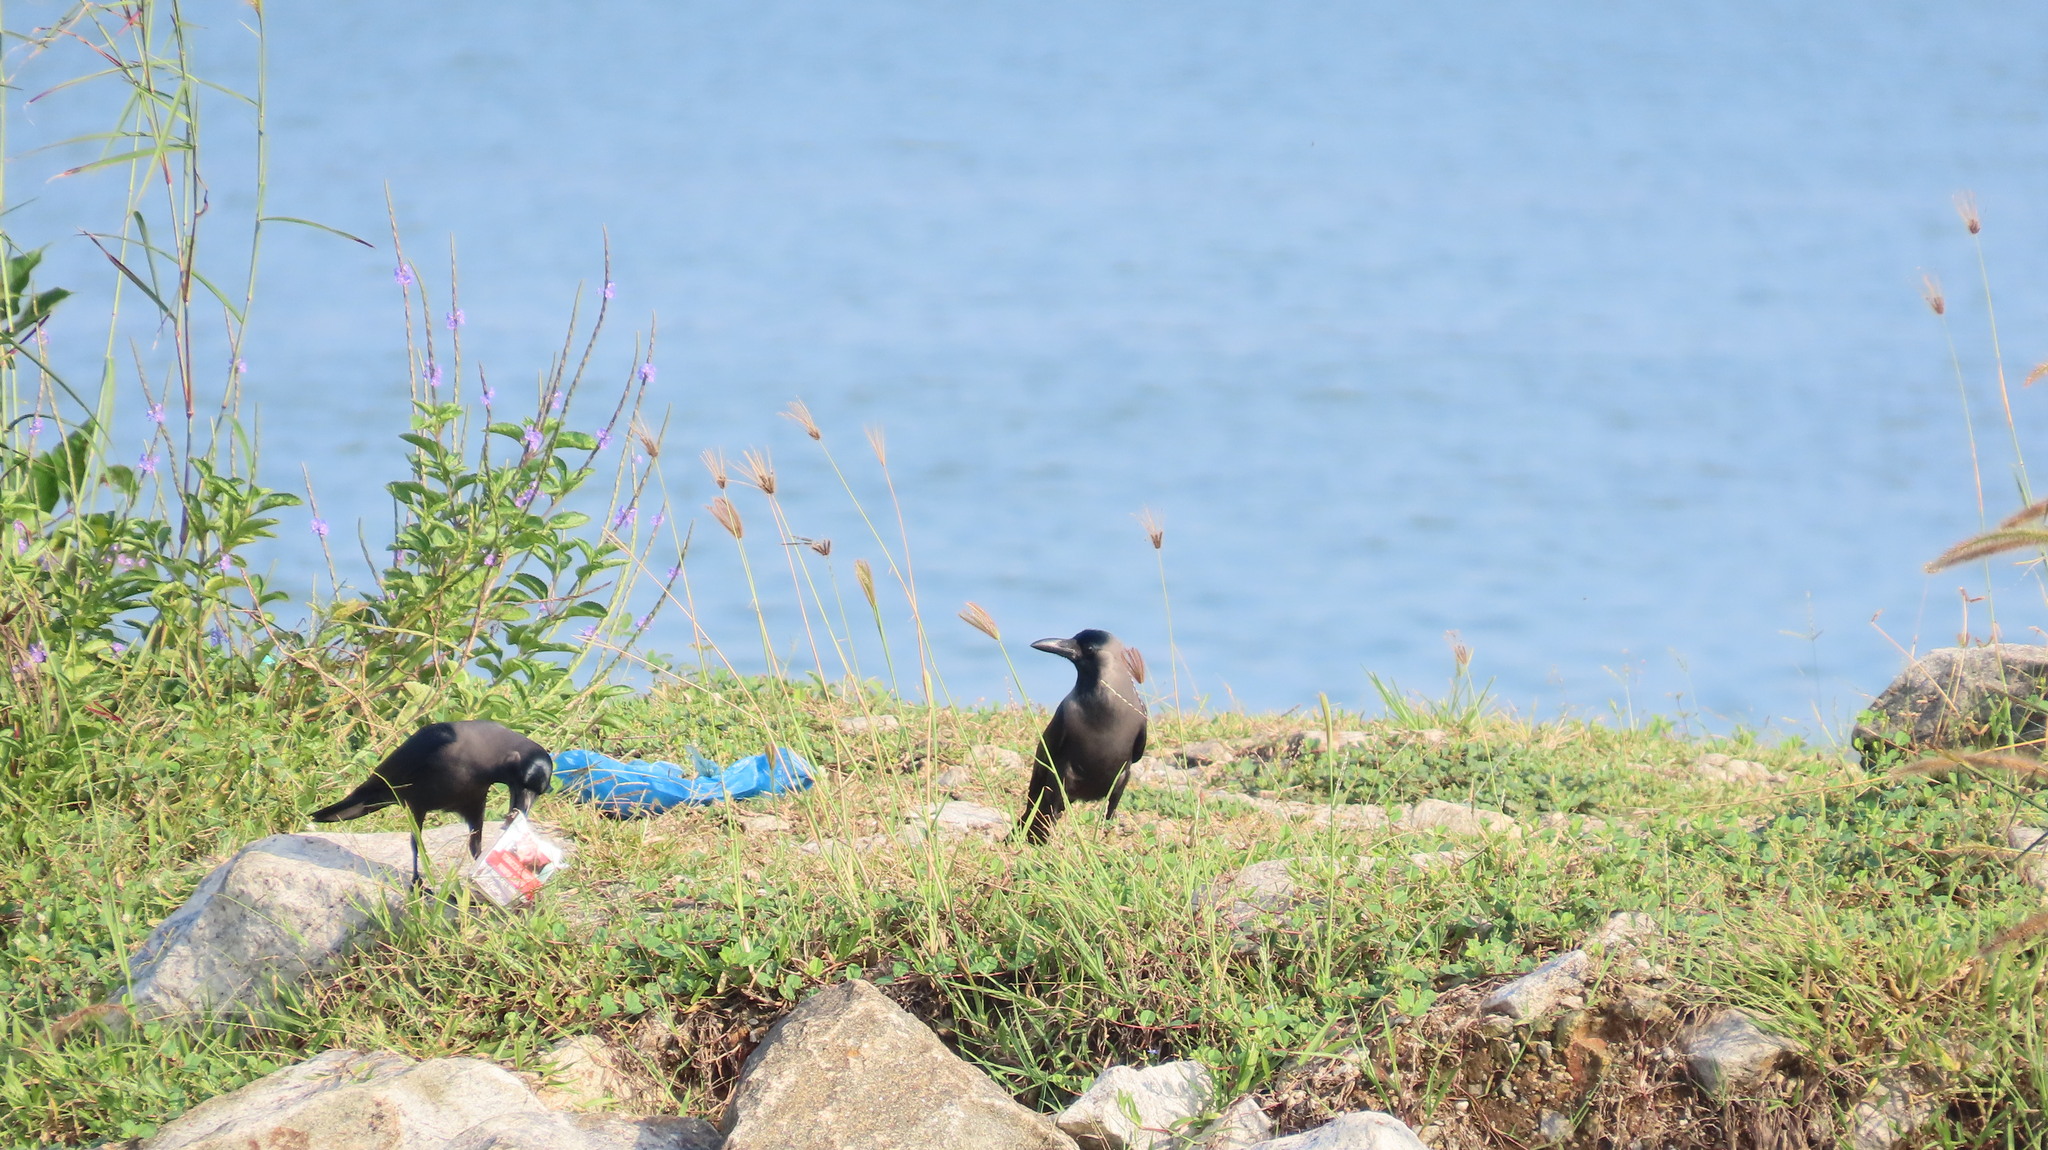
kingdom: Animalia
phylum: Chordata
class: Aves
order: Passeriformes
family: Corvidae
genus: Corvus
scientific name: Corvus splendens
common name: House crow
